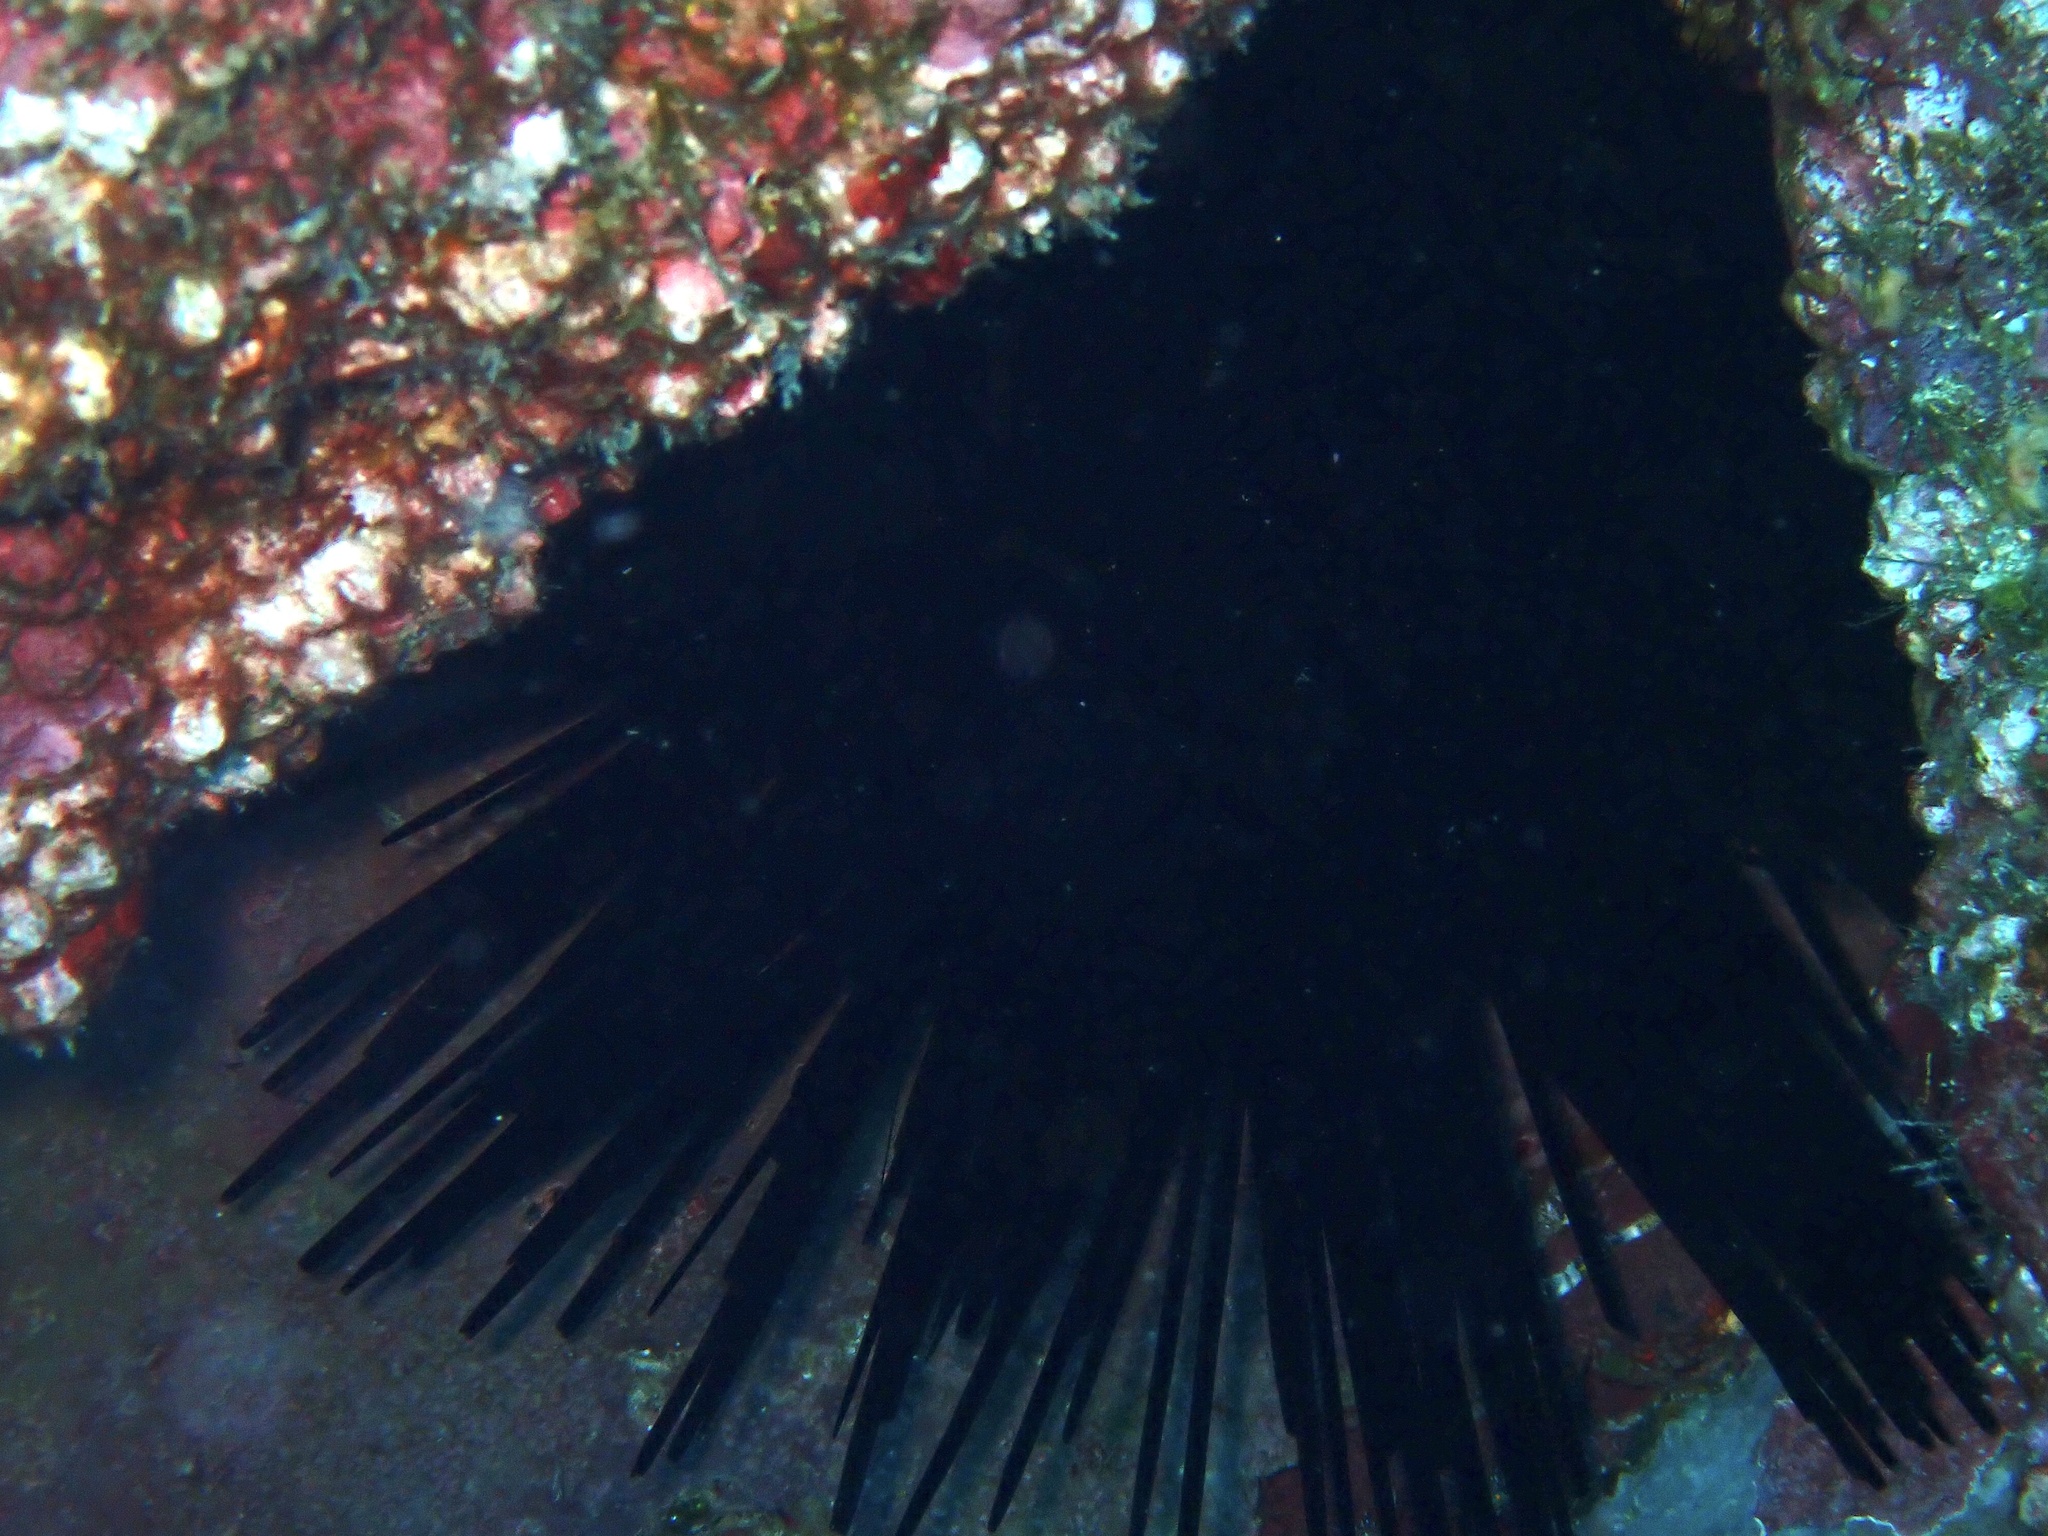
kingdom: Animalia
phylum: Echinodermata
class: Echinoidea
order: Diadematoida
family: Diadematidae
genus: Centrostephanus
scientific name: Centrostephanus rodgersii
